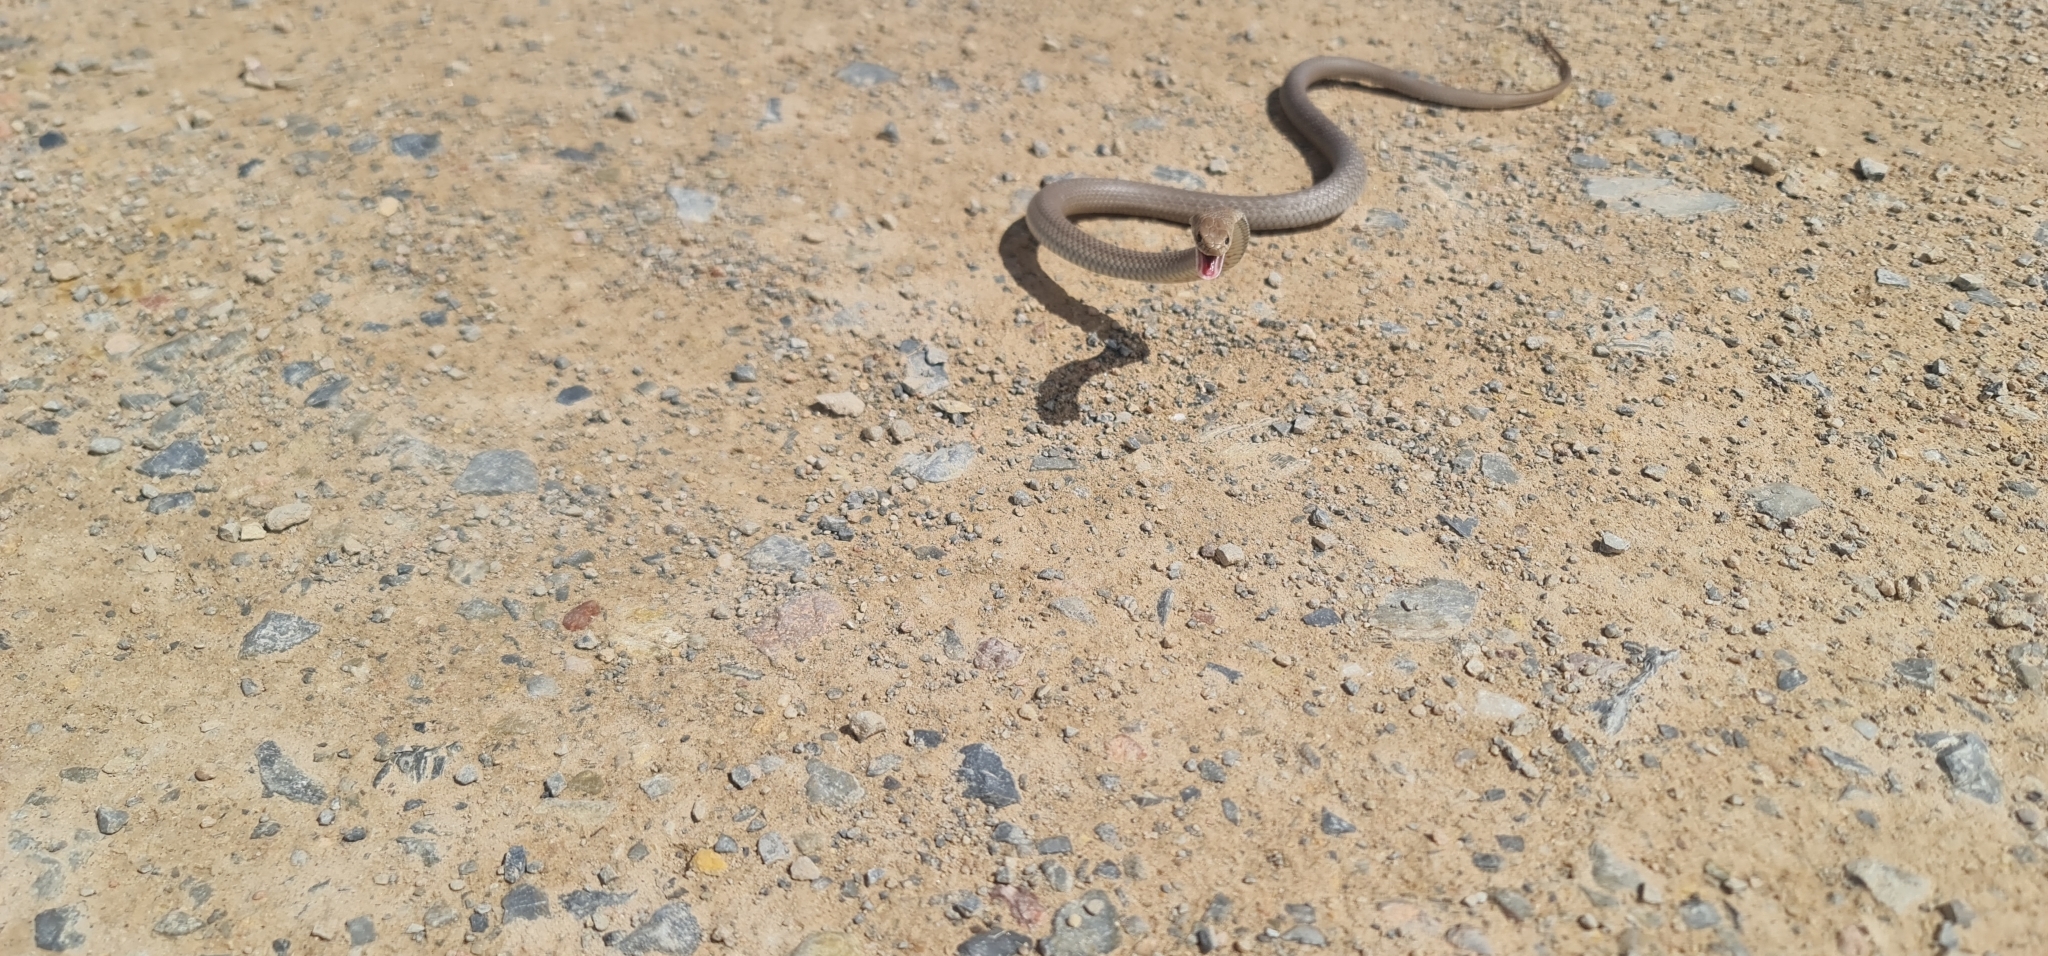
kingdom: Animalia
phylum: Chordata
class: Squamata
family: Elapidae
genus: Pseudonaja
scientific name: Pseudonaja textilis
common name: Eastern brown snake
